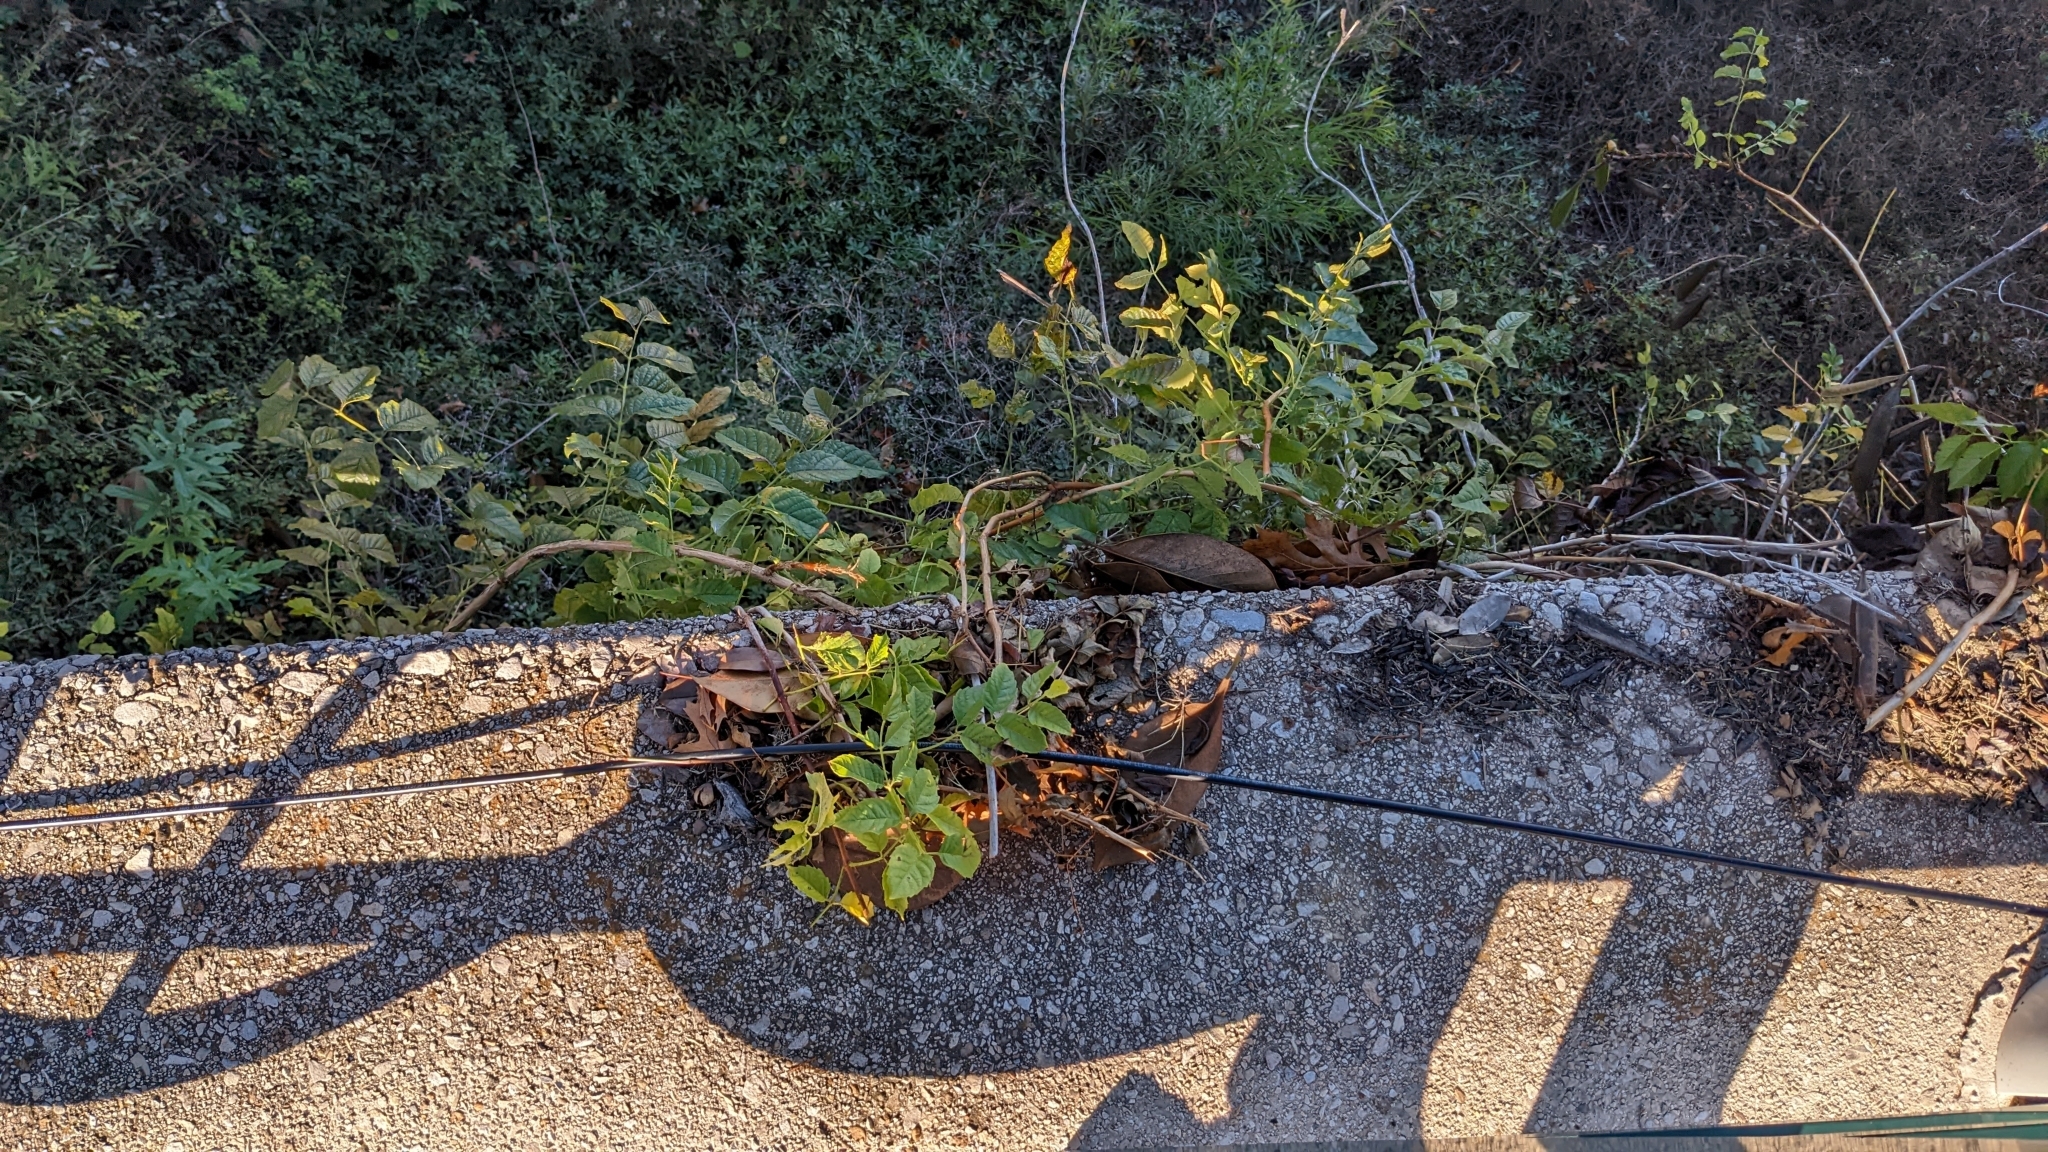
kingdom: Plantae
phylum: Tracheophyta
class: Magnoliopsida
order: Lamiales
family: Bignoniaceae
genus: Campsis
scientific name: Campsis radicans
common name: Trumpet-creeper
